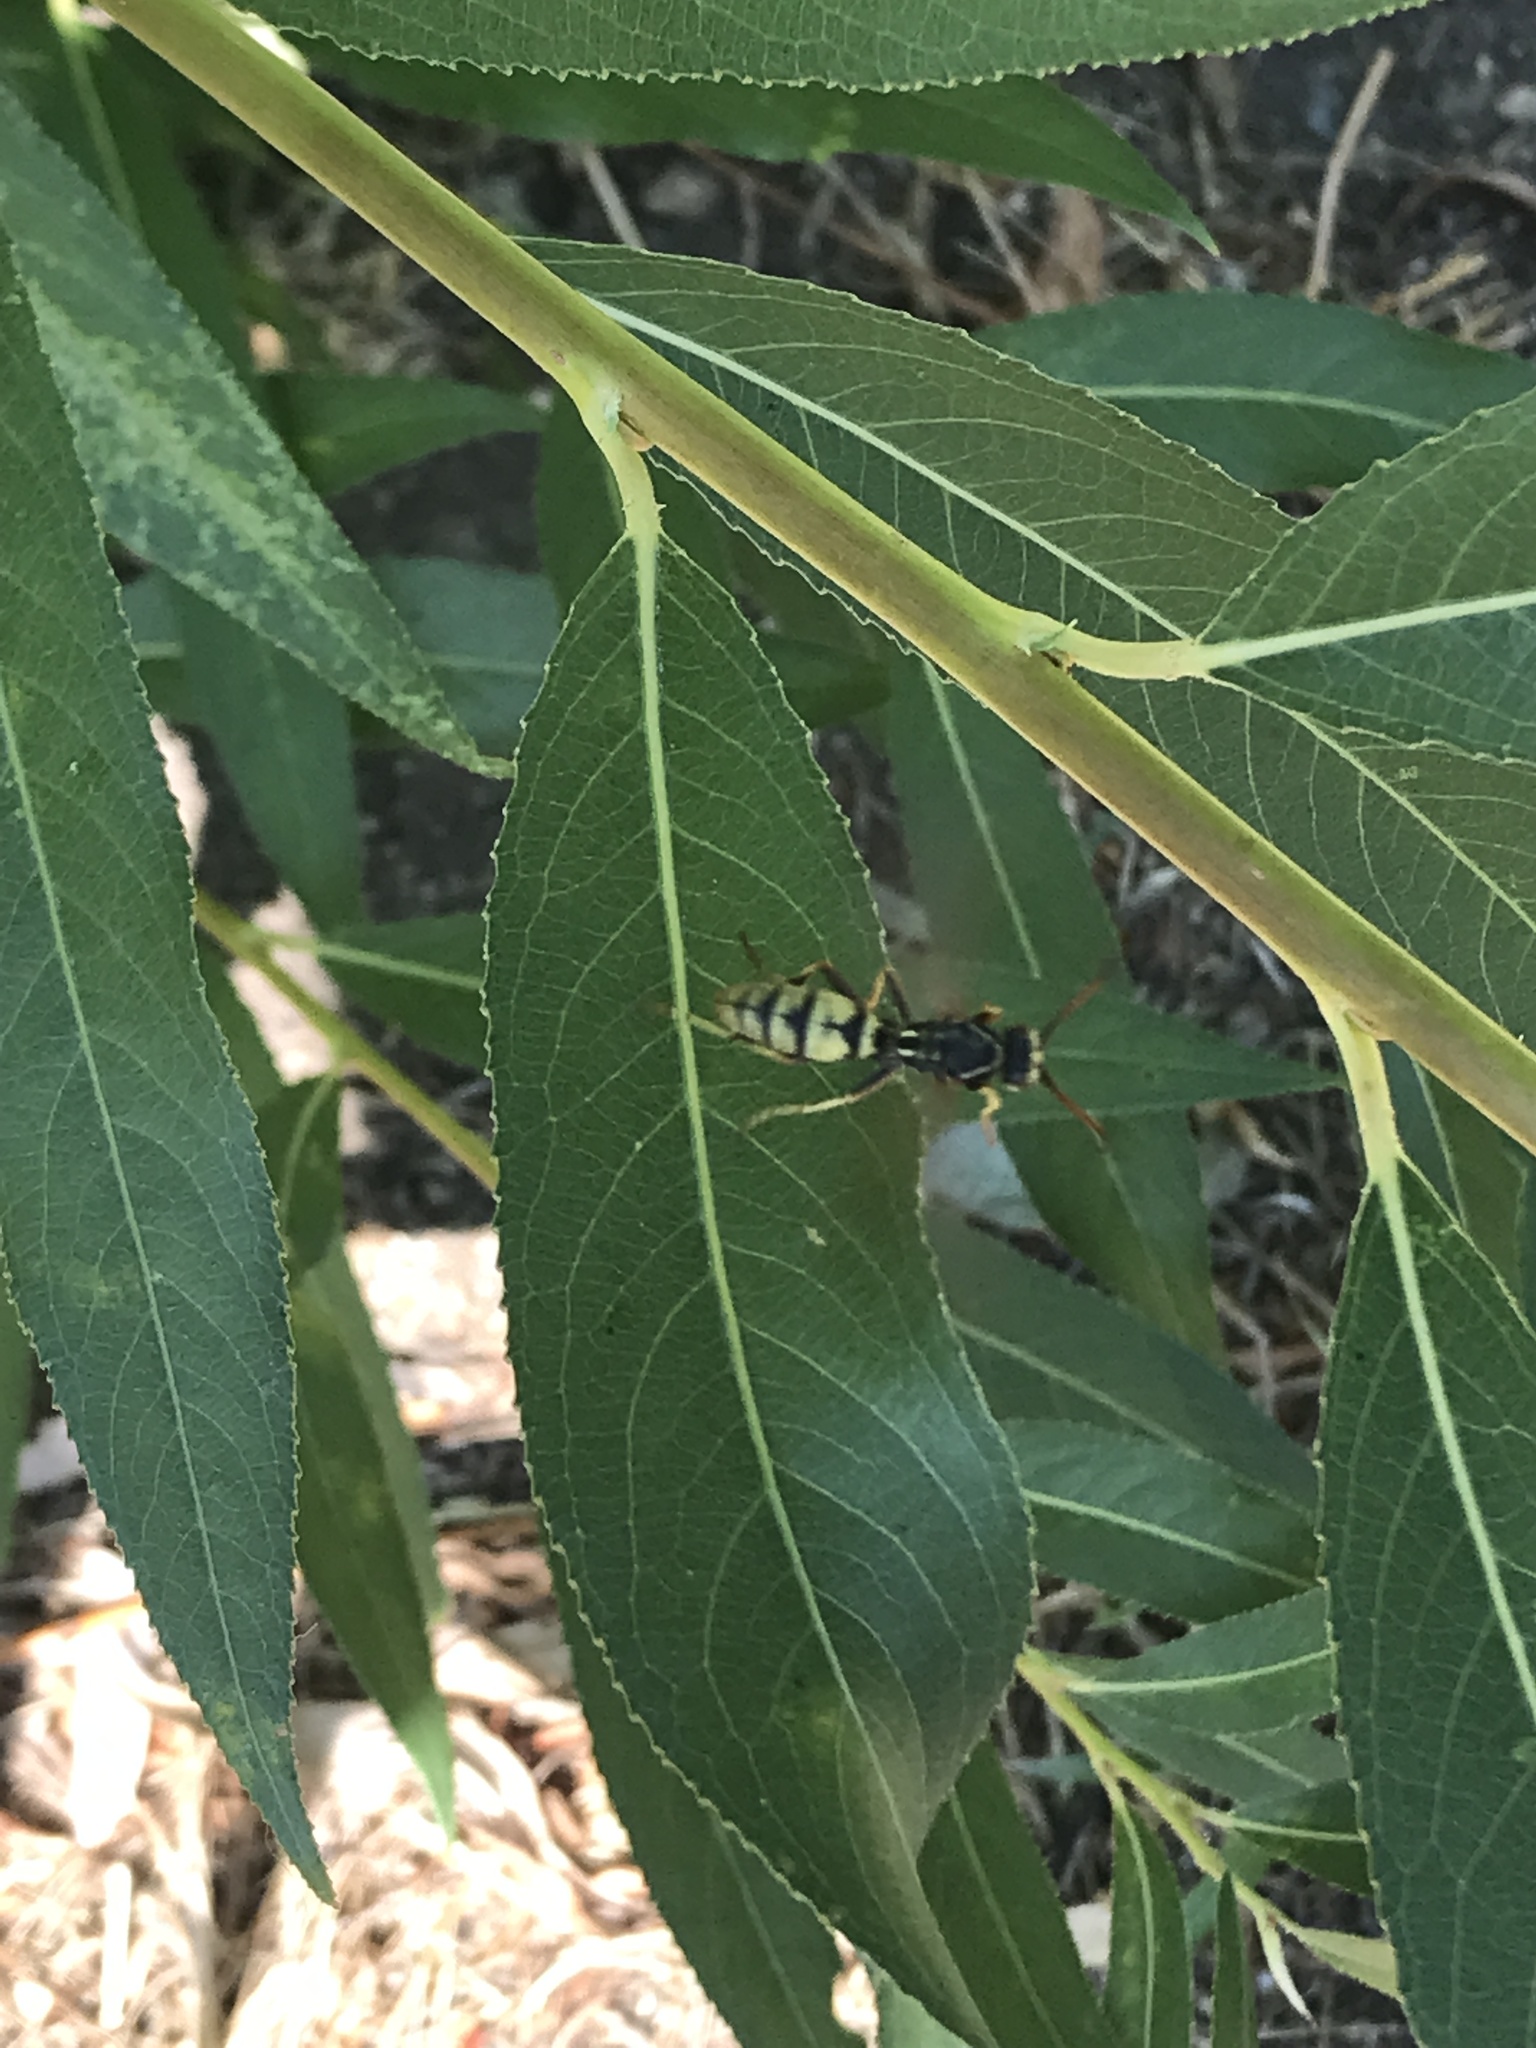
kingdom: Animalia
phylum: Arthropoda
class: Insecta
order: Hymenoptera
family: Eumenidae
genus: Polistes
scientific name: Polistes aurifer
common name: Paper wasp
